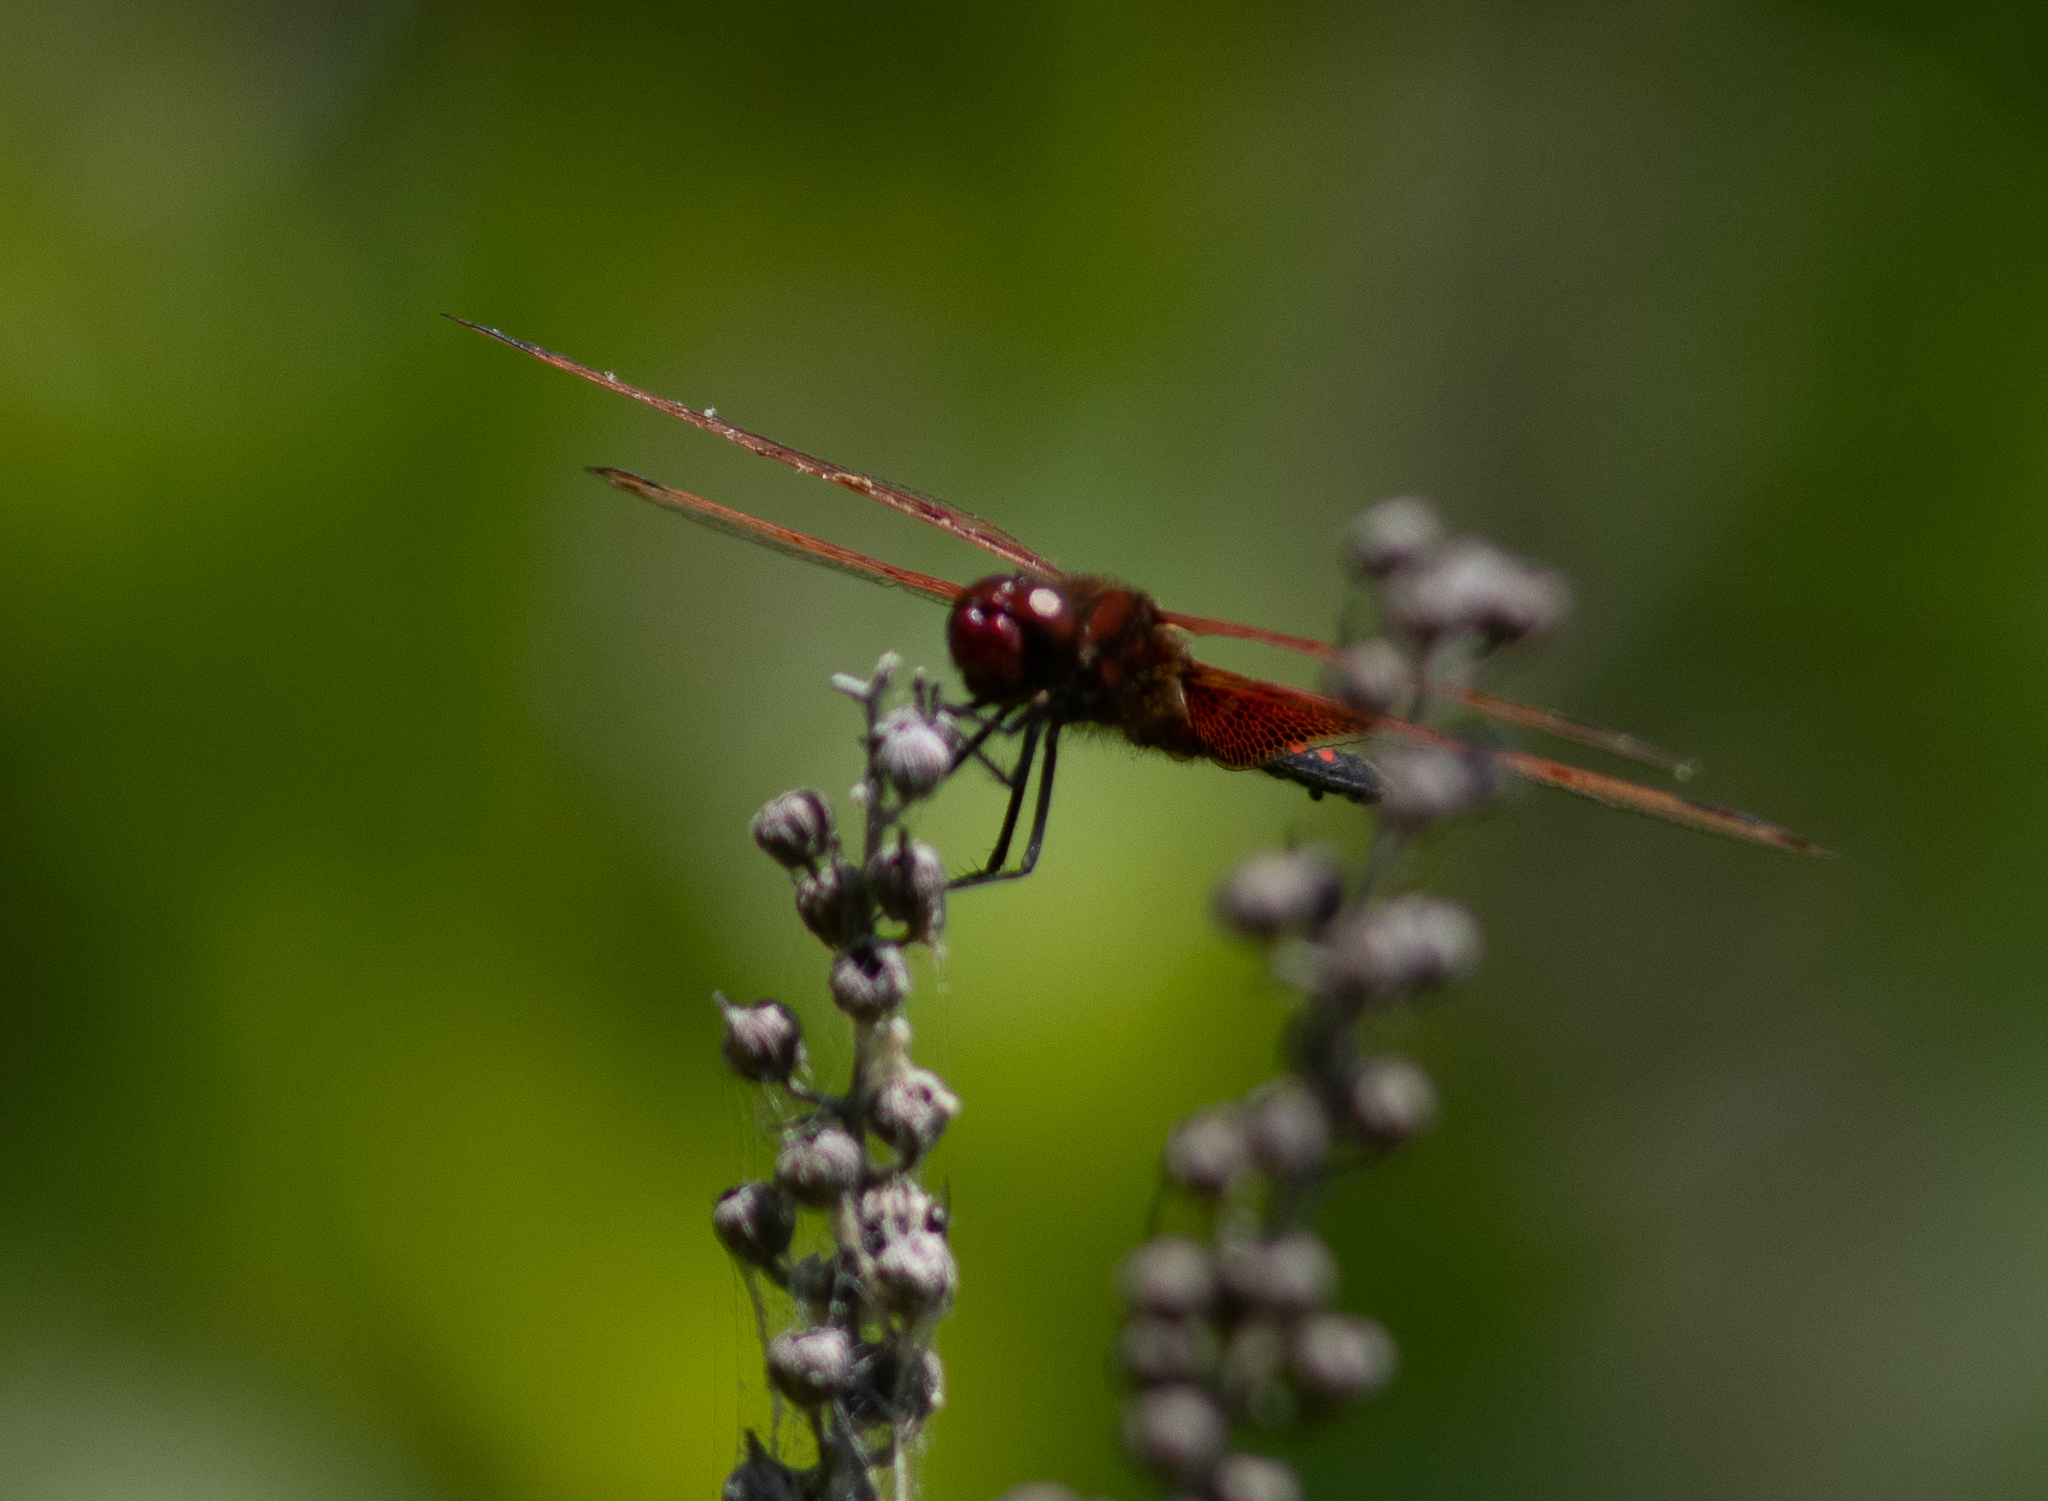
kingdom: Animalia
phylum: Arthropoda
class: Insecta
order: Odonata
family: Libellulidae
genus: Celithemis
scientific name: Celithemis elisa
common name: Calico pennant
